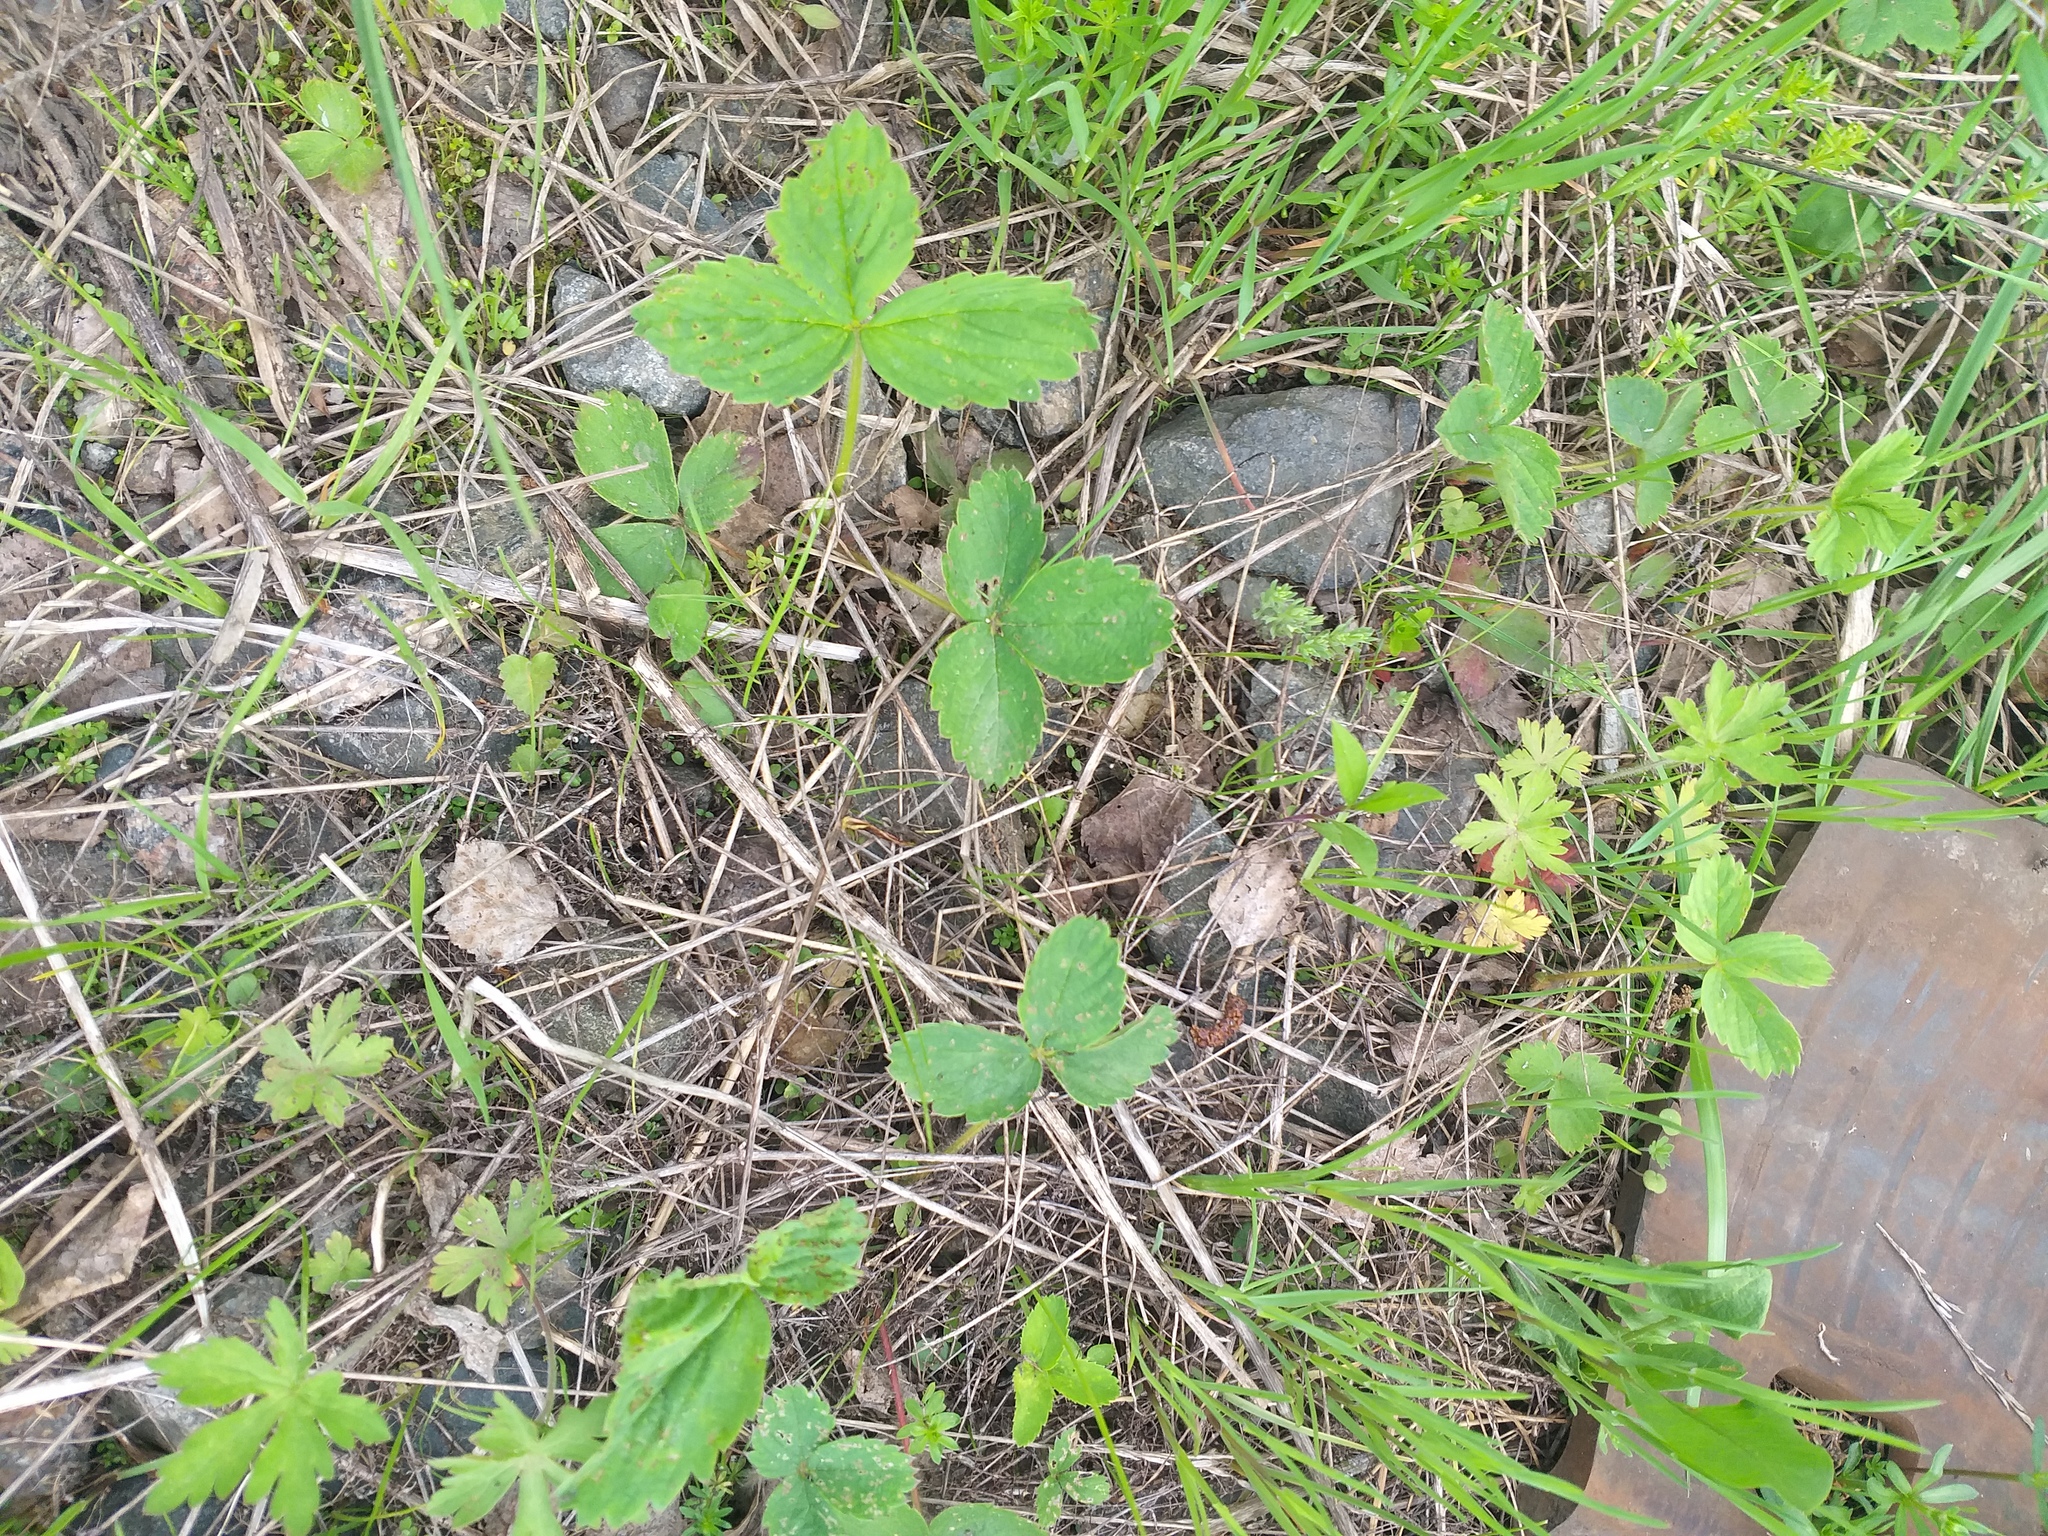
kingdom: Plantae
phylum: Tracheophyta
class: Magnoliopsida
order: Rosales
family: Rosaceae
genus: Fragaria
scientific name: Fragaria ananassa
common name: Garden strawberry
